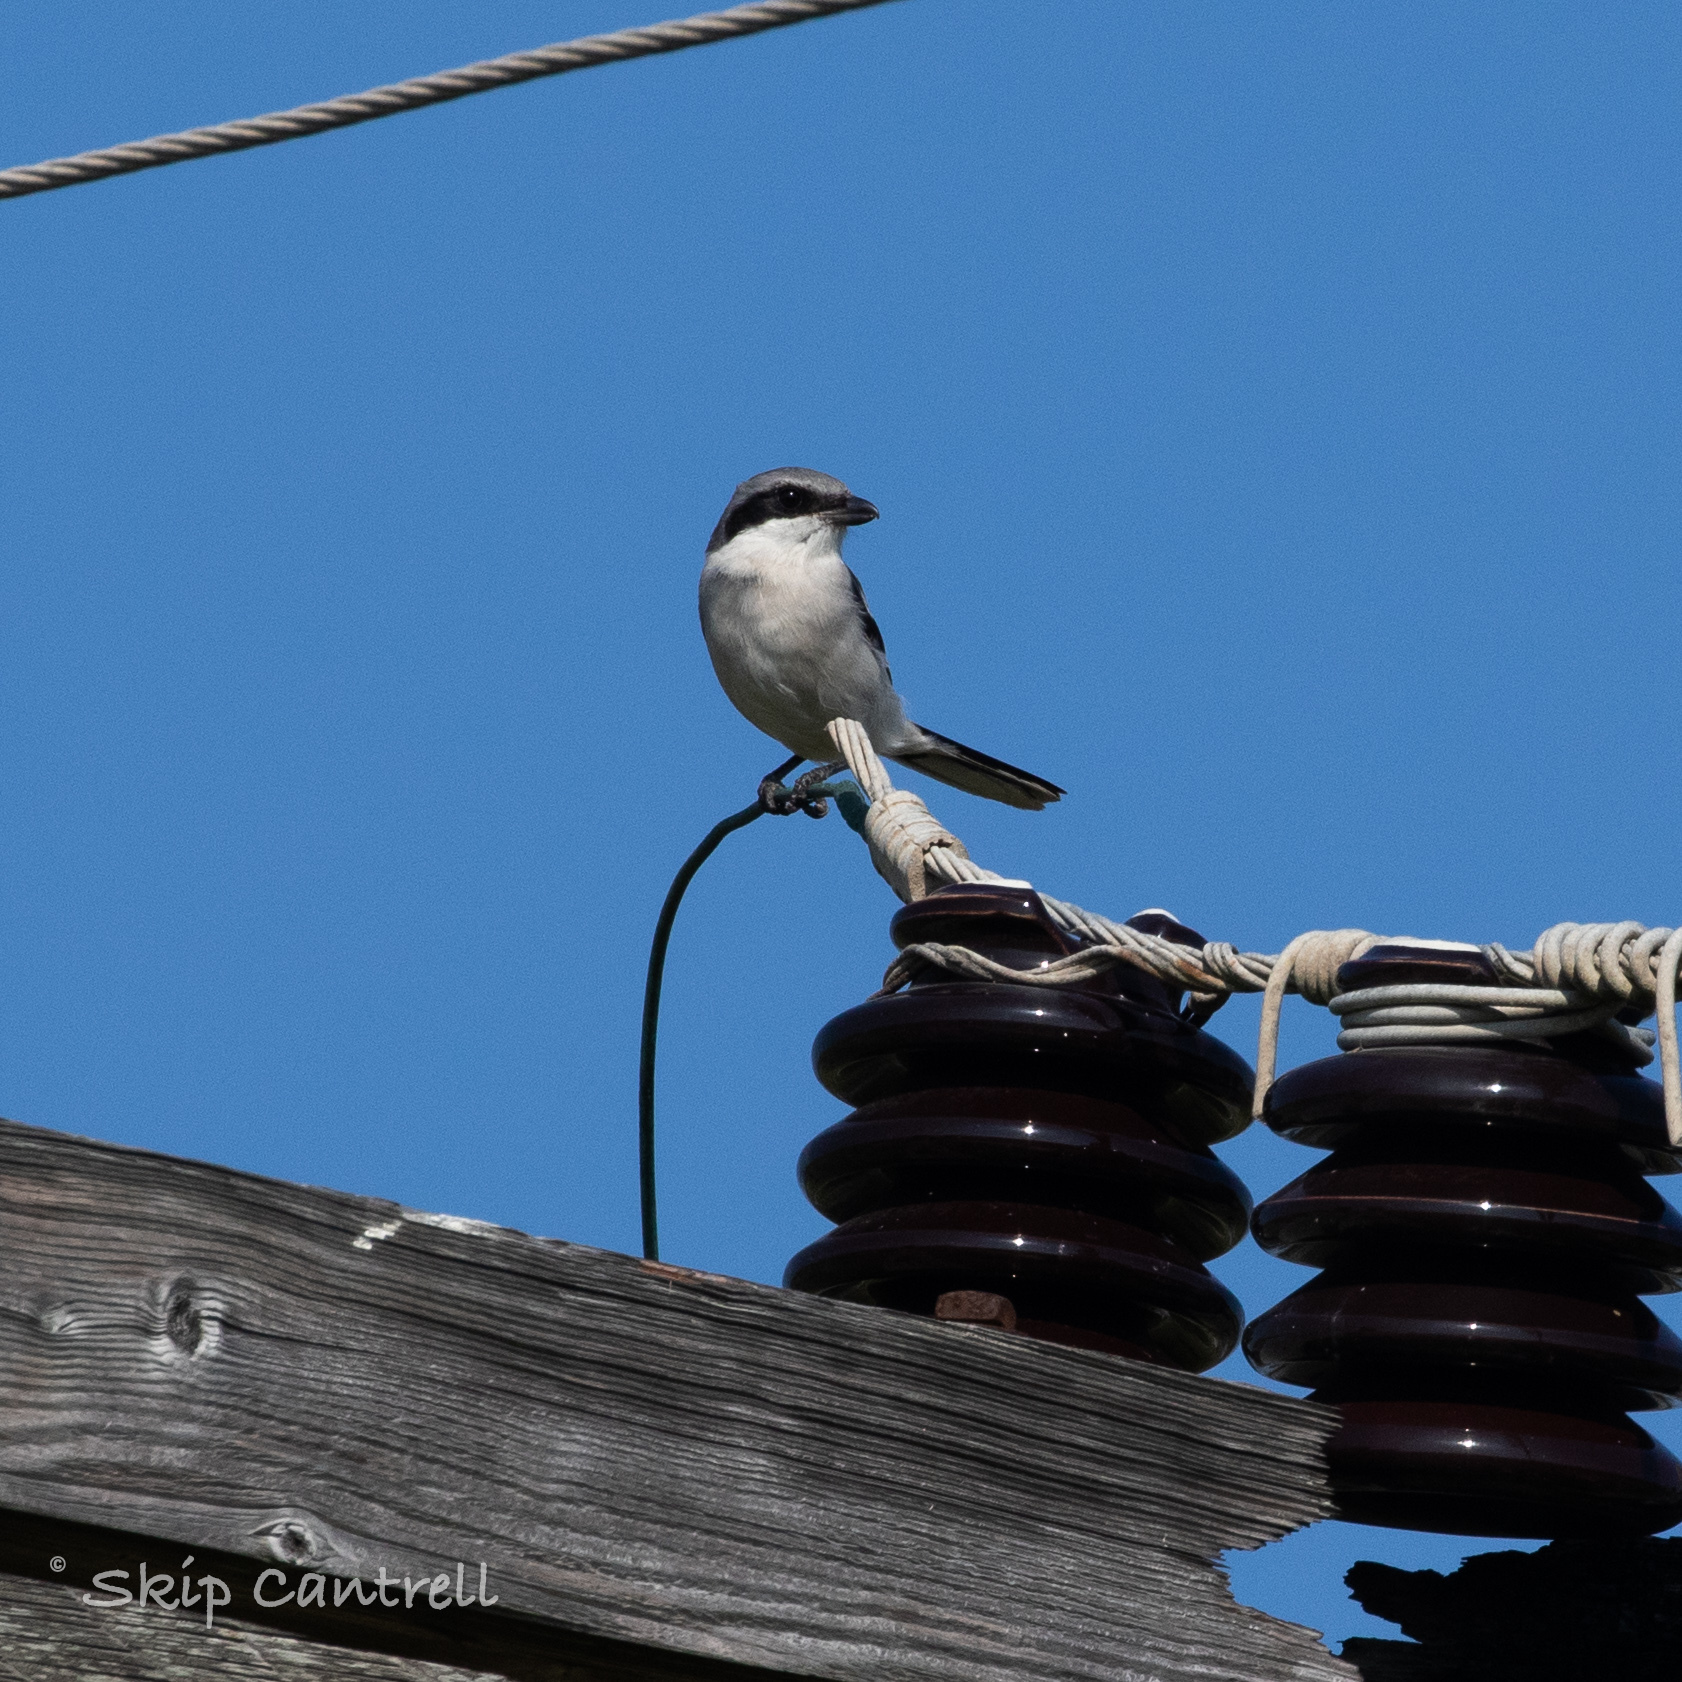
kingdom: Animalia
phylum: Chordata
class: Aves
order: Passeriformes
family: Laniidae
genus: Lanius
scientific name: Lanius ludovicianus
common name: Loggerhead shrike
